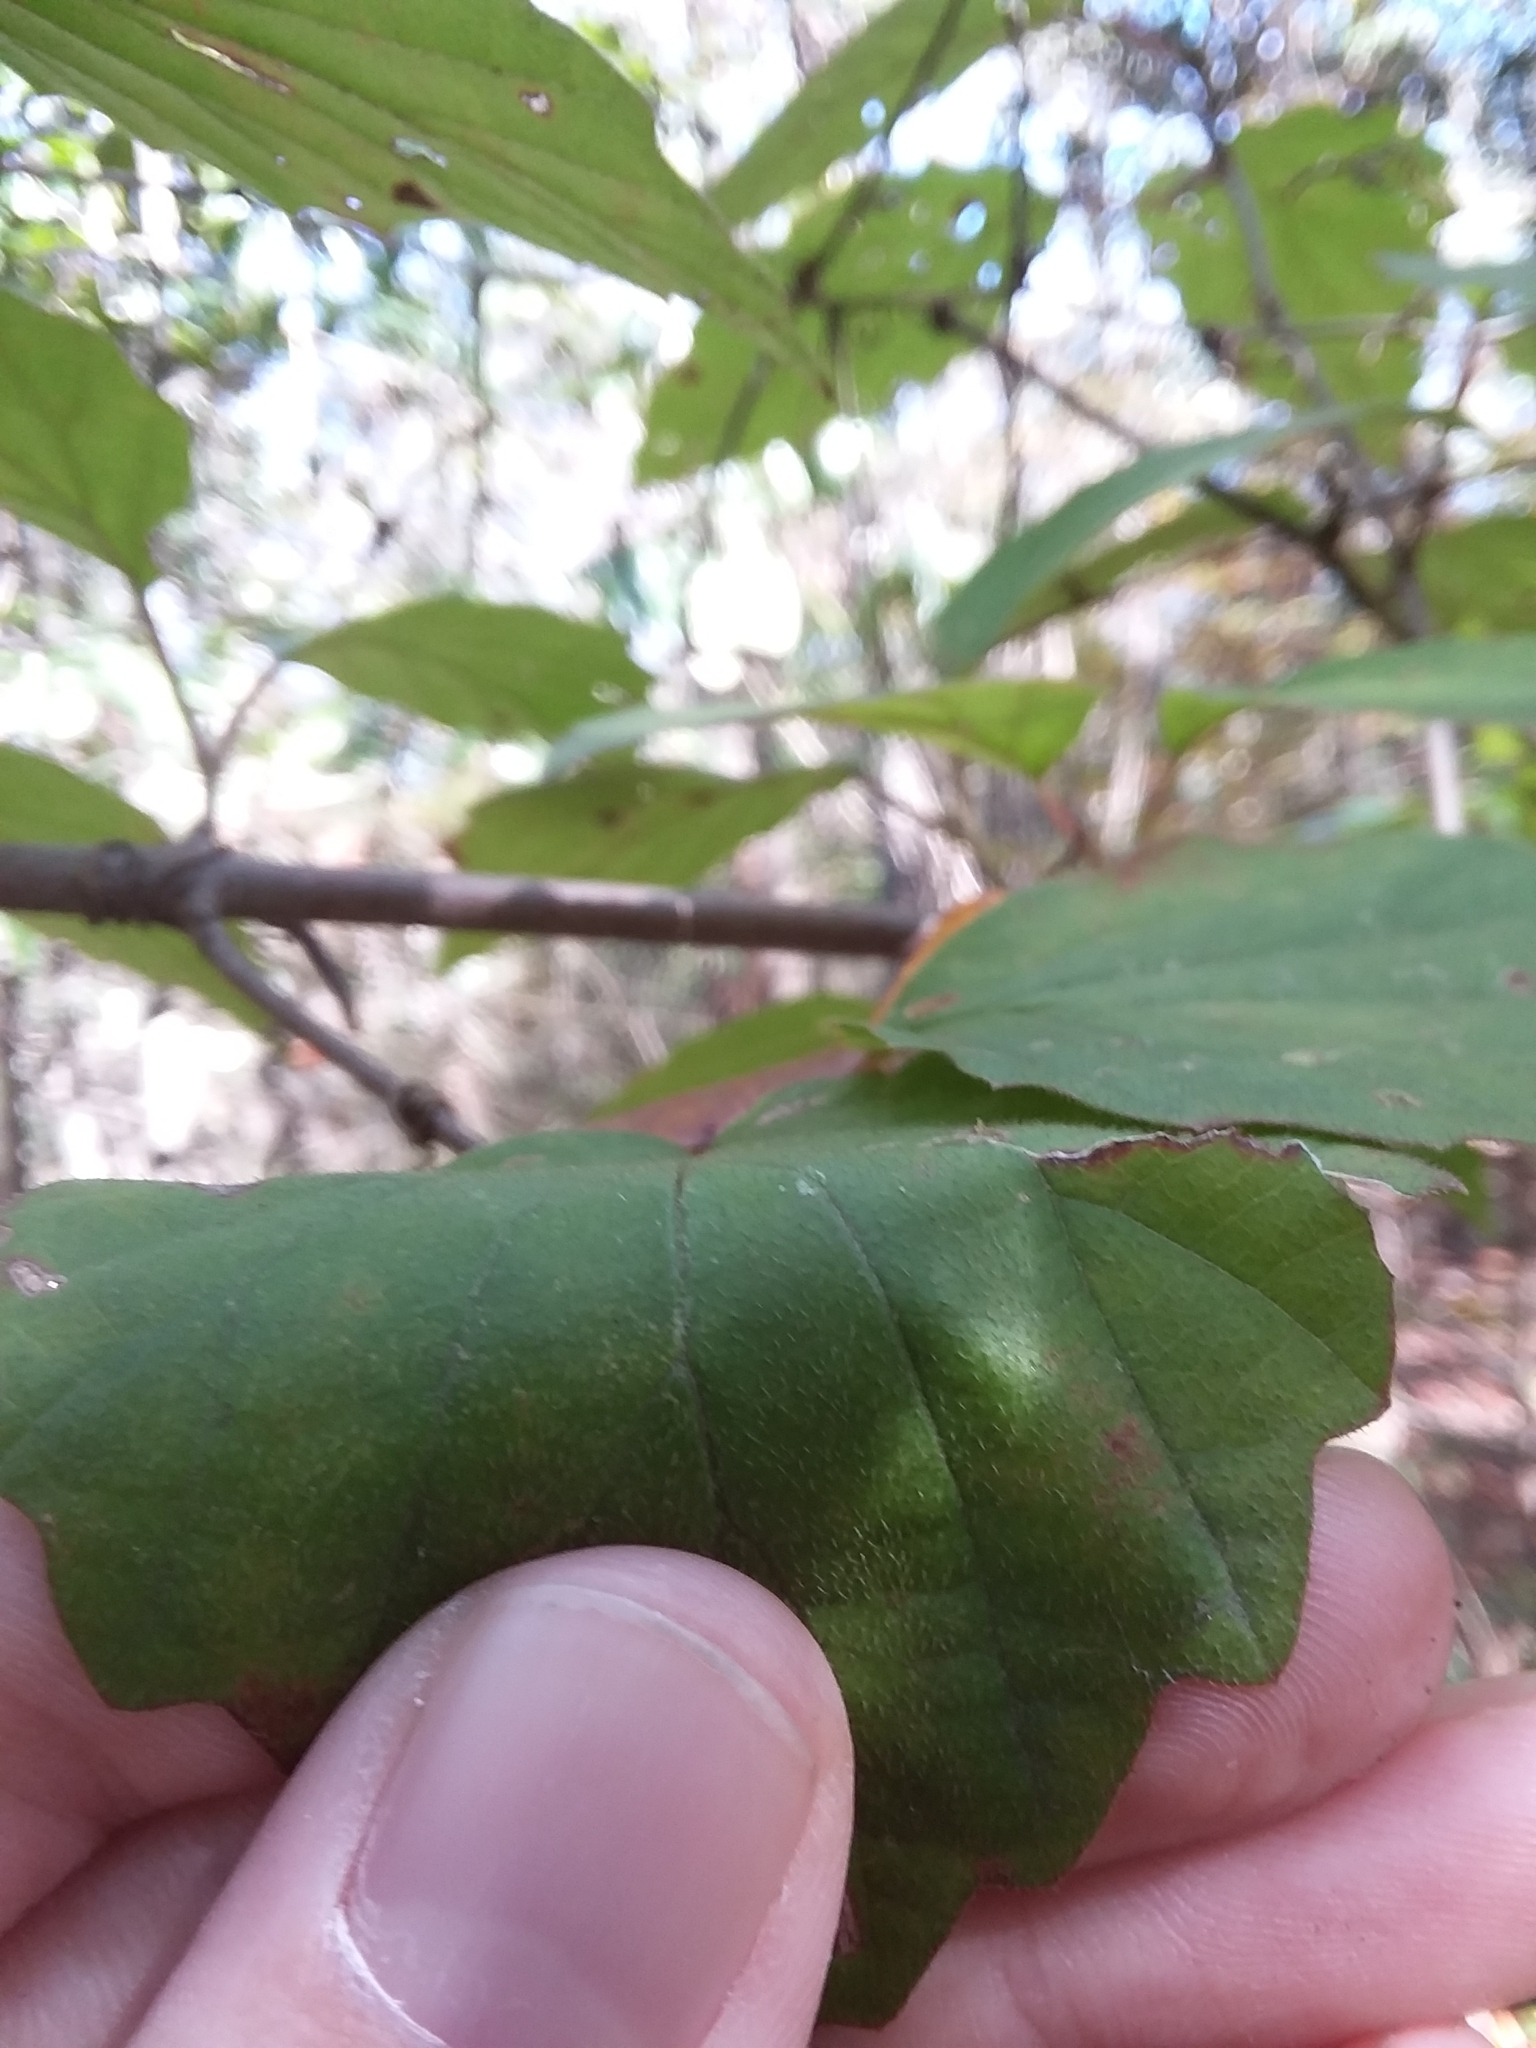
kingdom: Plantae
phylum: Tracheophyta
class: Magnoliopsida
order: Dipsacales
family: Viburnaceae
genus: Viburnum
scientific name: Viburnum scabrellum
